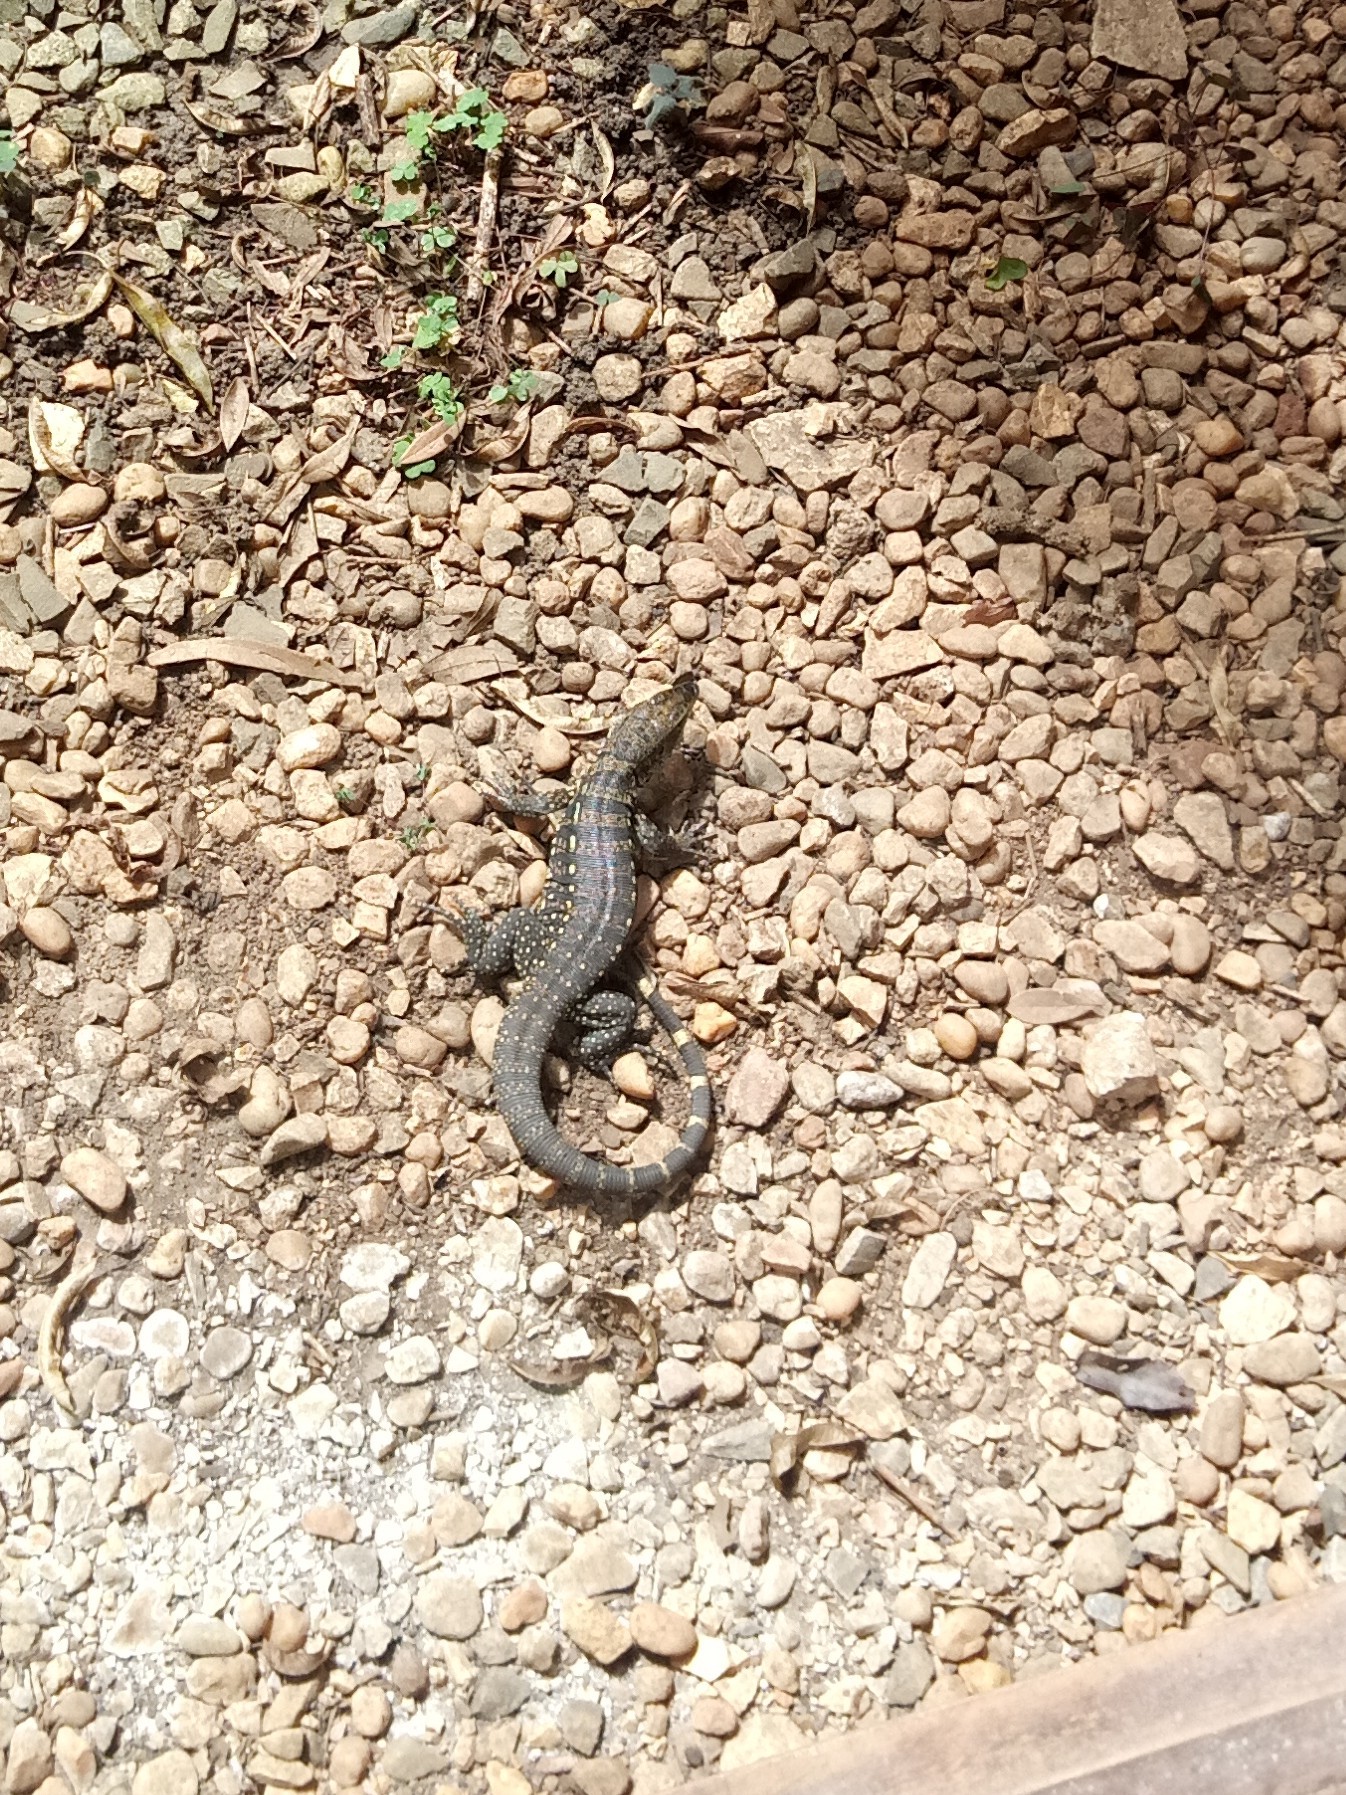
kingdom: Animalia
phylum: Chordata
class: Squamata
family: Teiidae
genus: Salvator
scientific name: Salvator merianae
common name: Argentine black and white tegu
